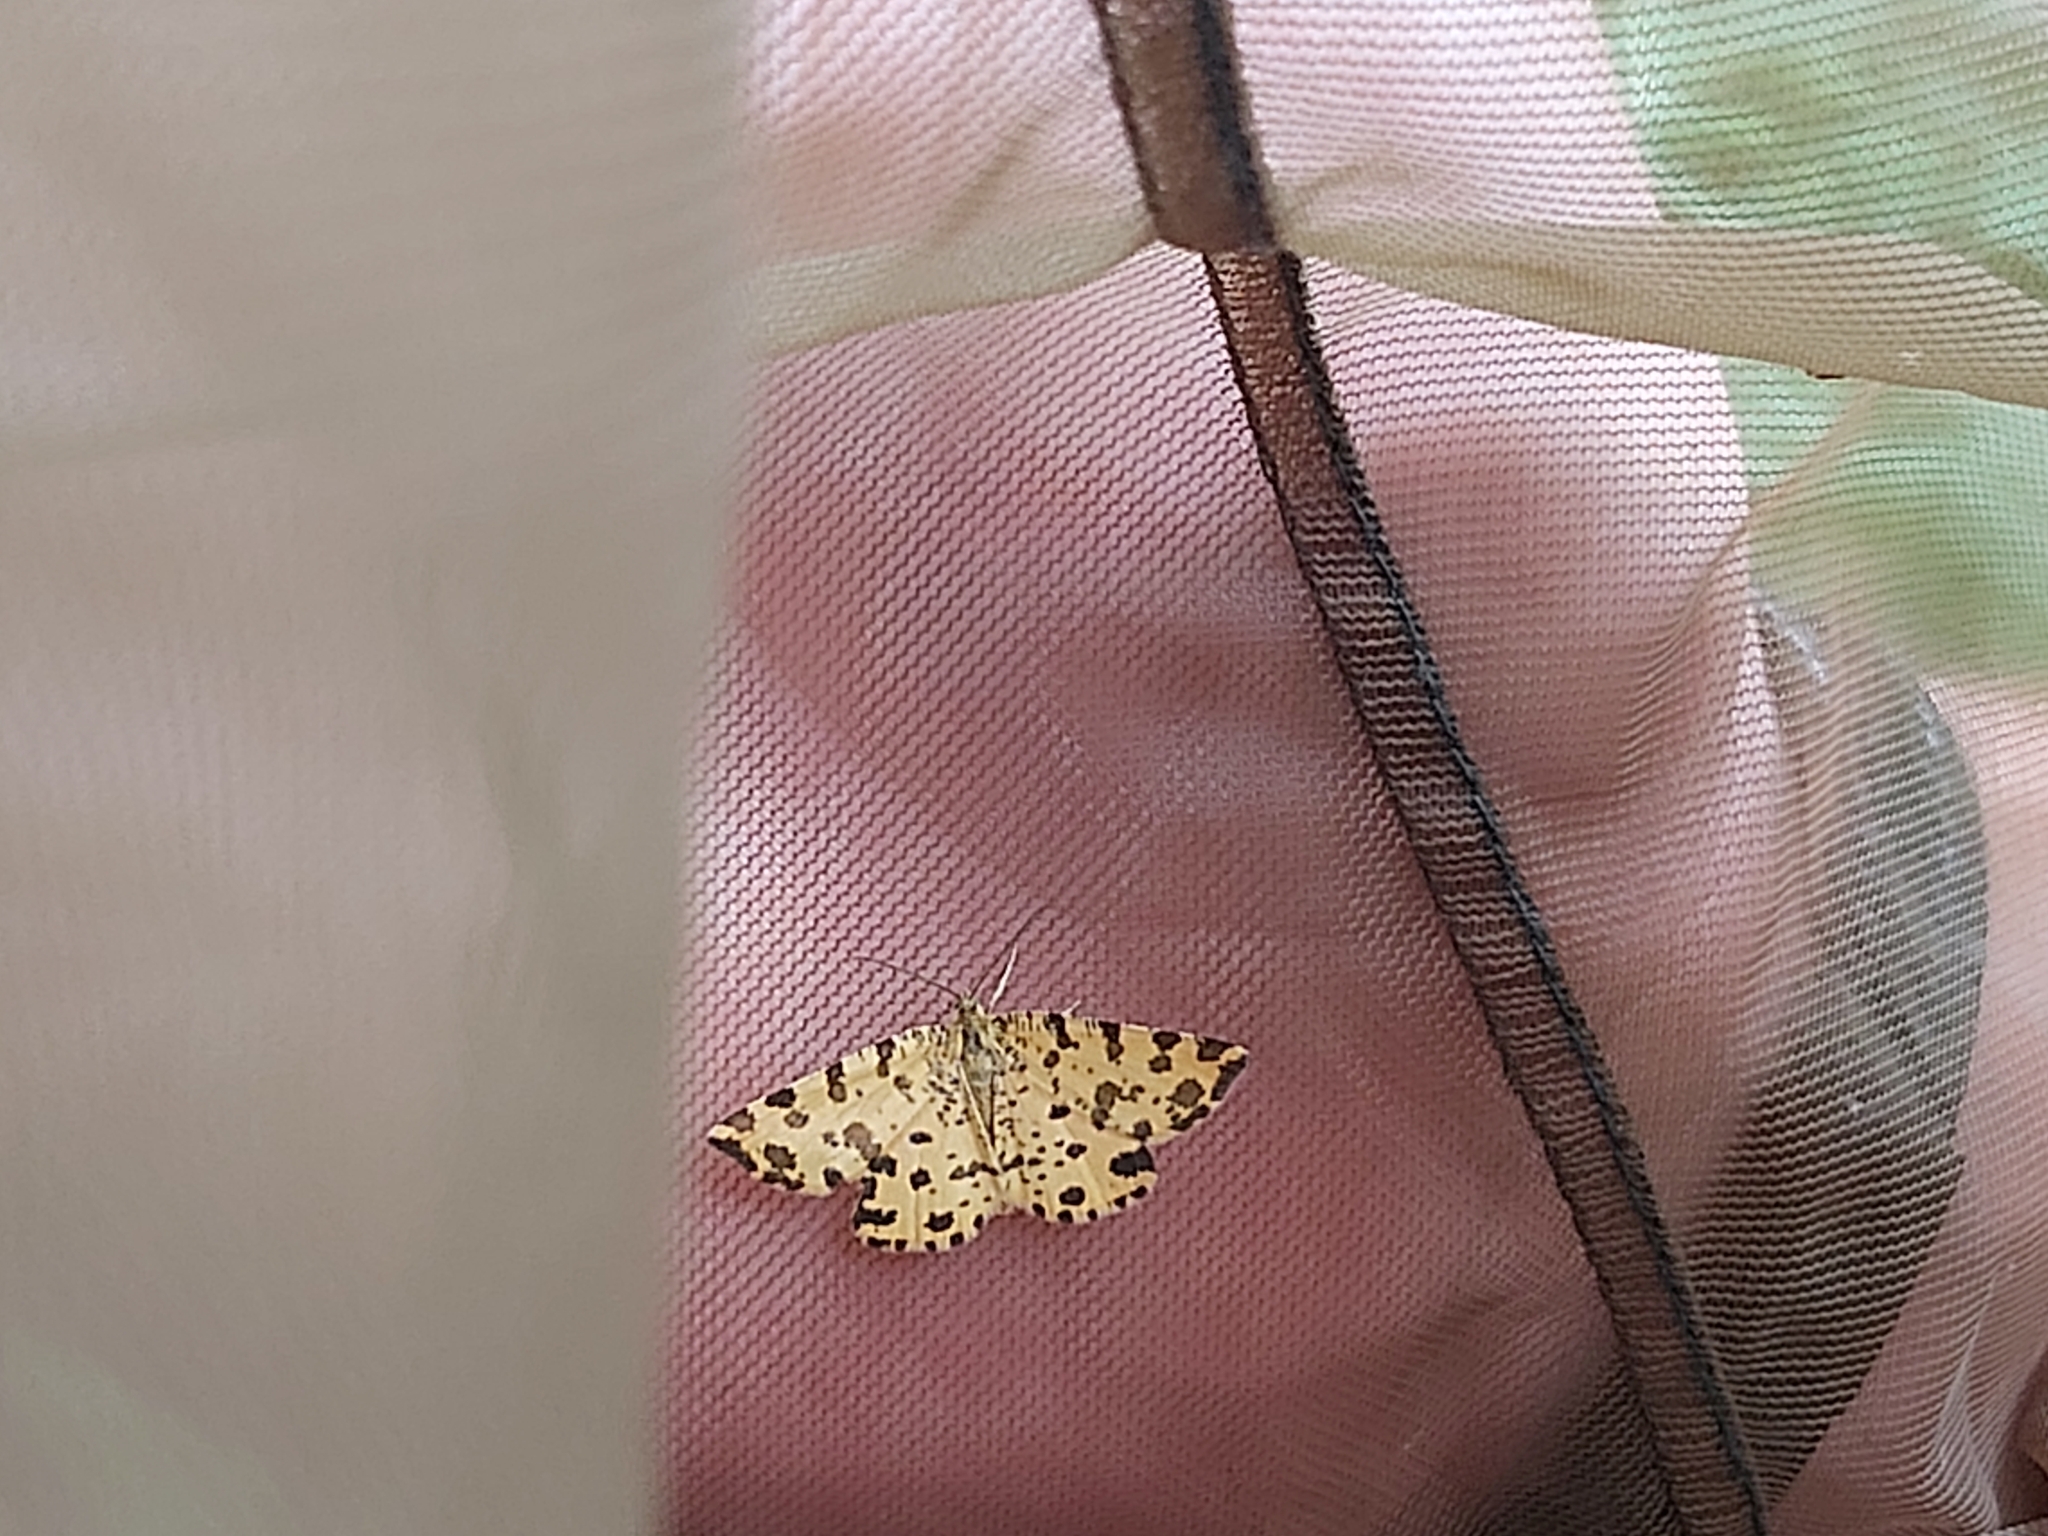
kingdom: Animalia
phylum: Arthropoda
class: Insecta
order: Lepidoptera
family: Geometridae
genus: Pseudopanthera
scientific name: Pseudopanthera macularia
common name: Speckled yellow
